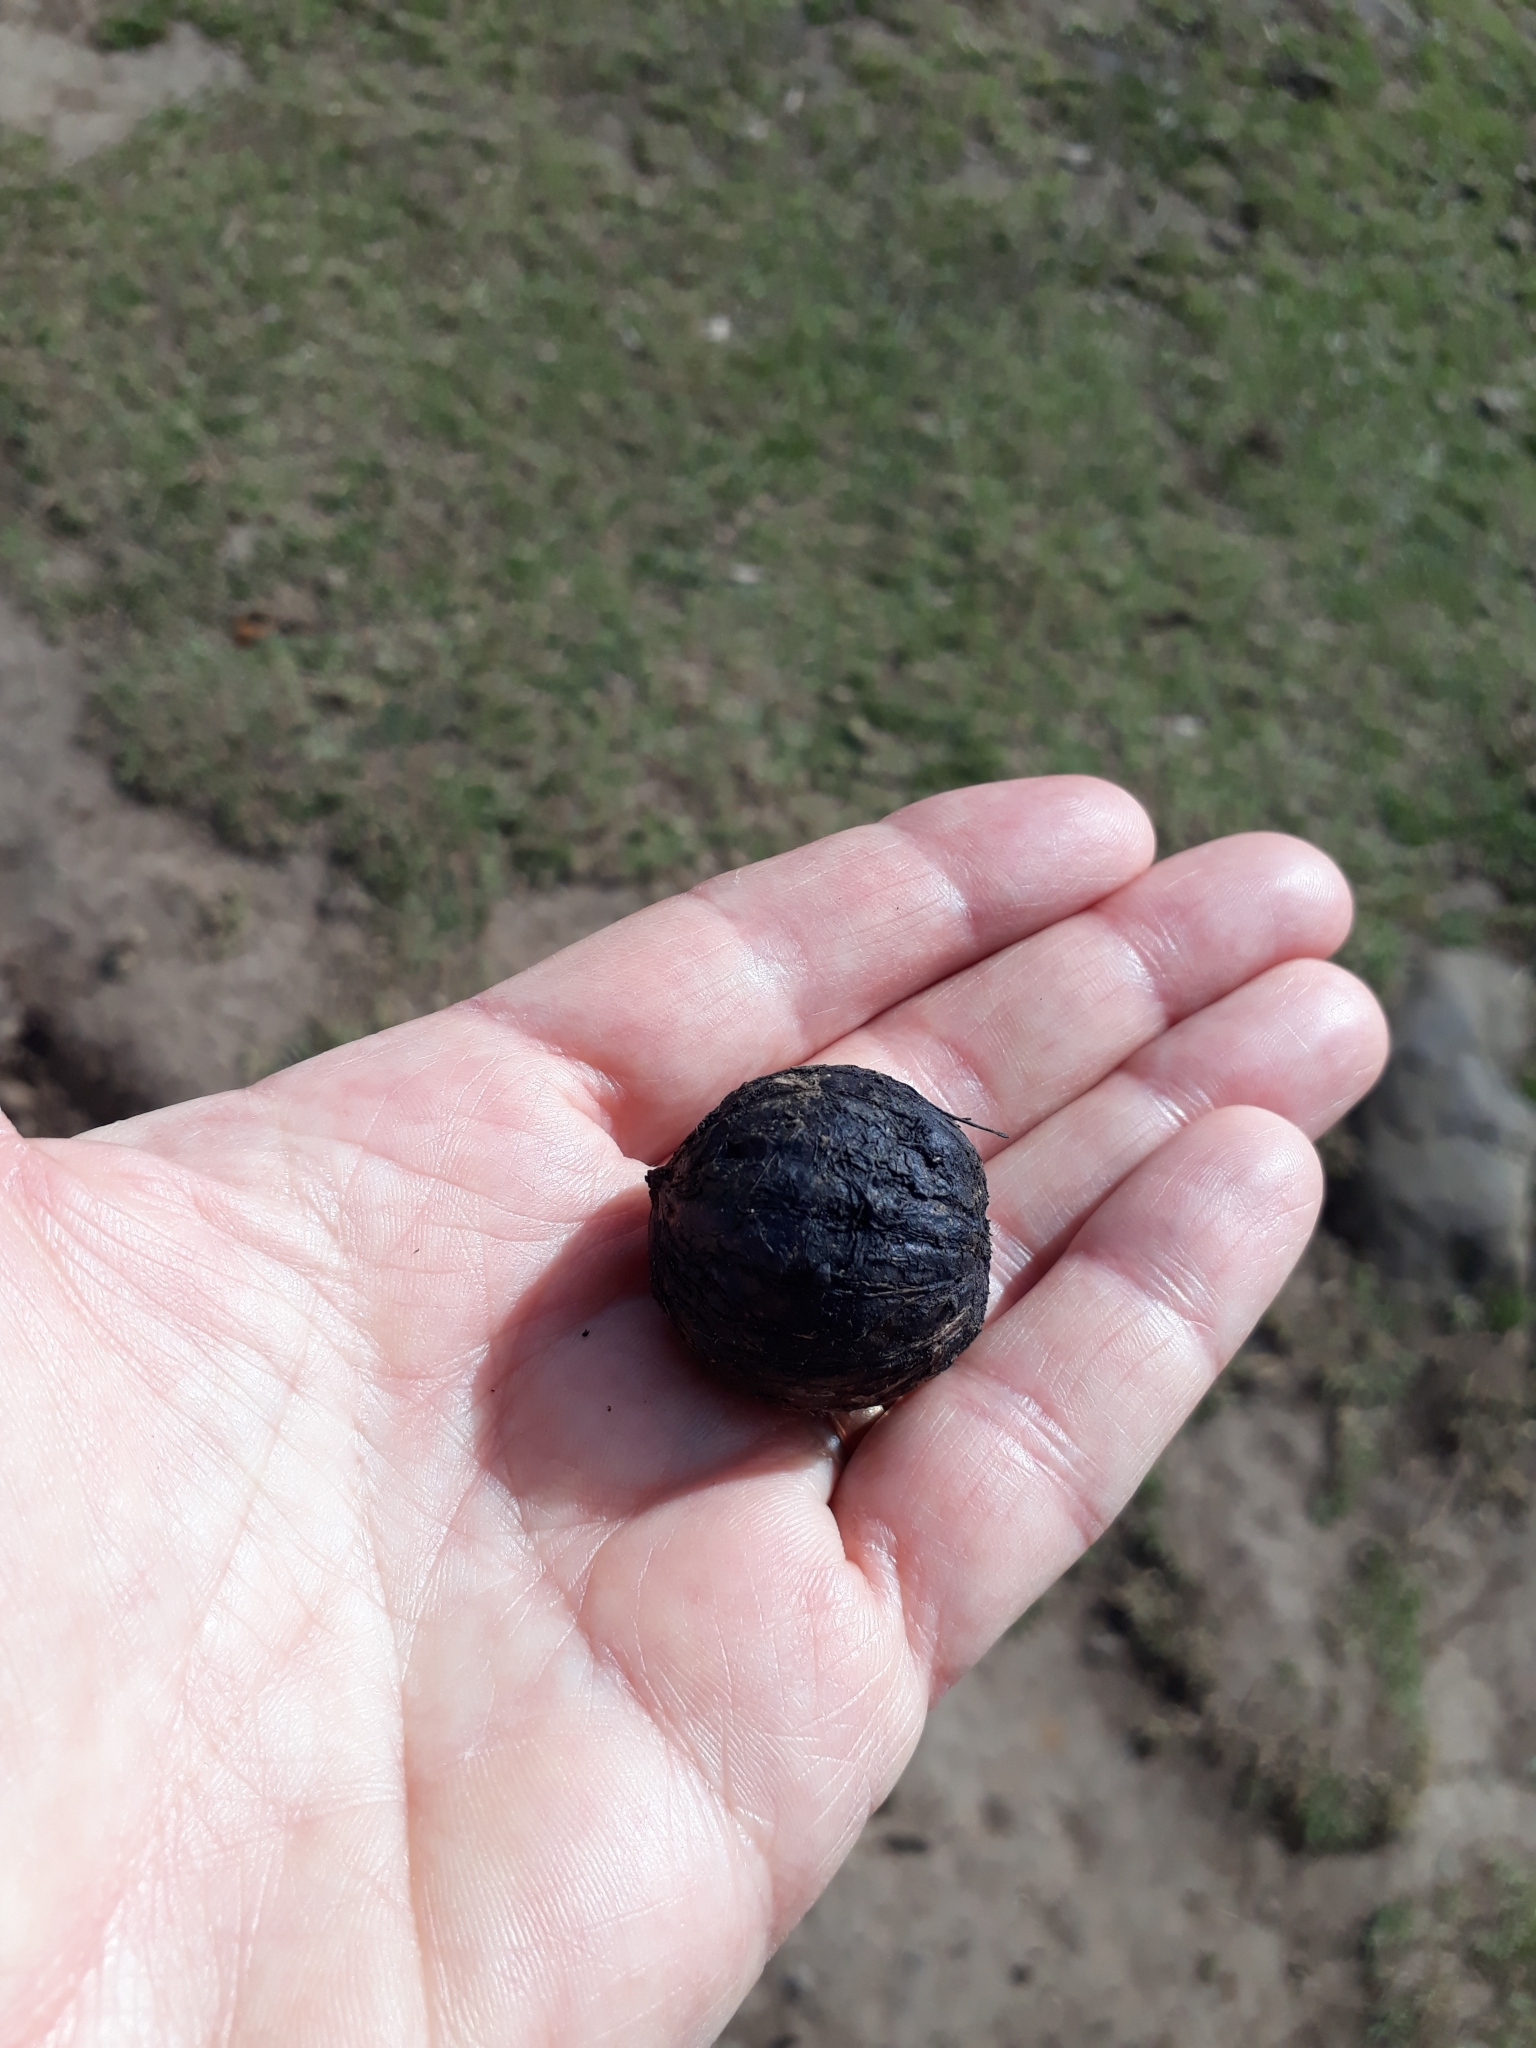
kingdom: Plantae
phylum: Tracheophyta
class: Magnoliopsida
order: Fagales
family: Juglandaceae
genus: Juglans
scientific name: Juglans australis
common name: Argentine walnut
